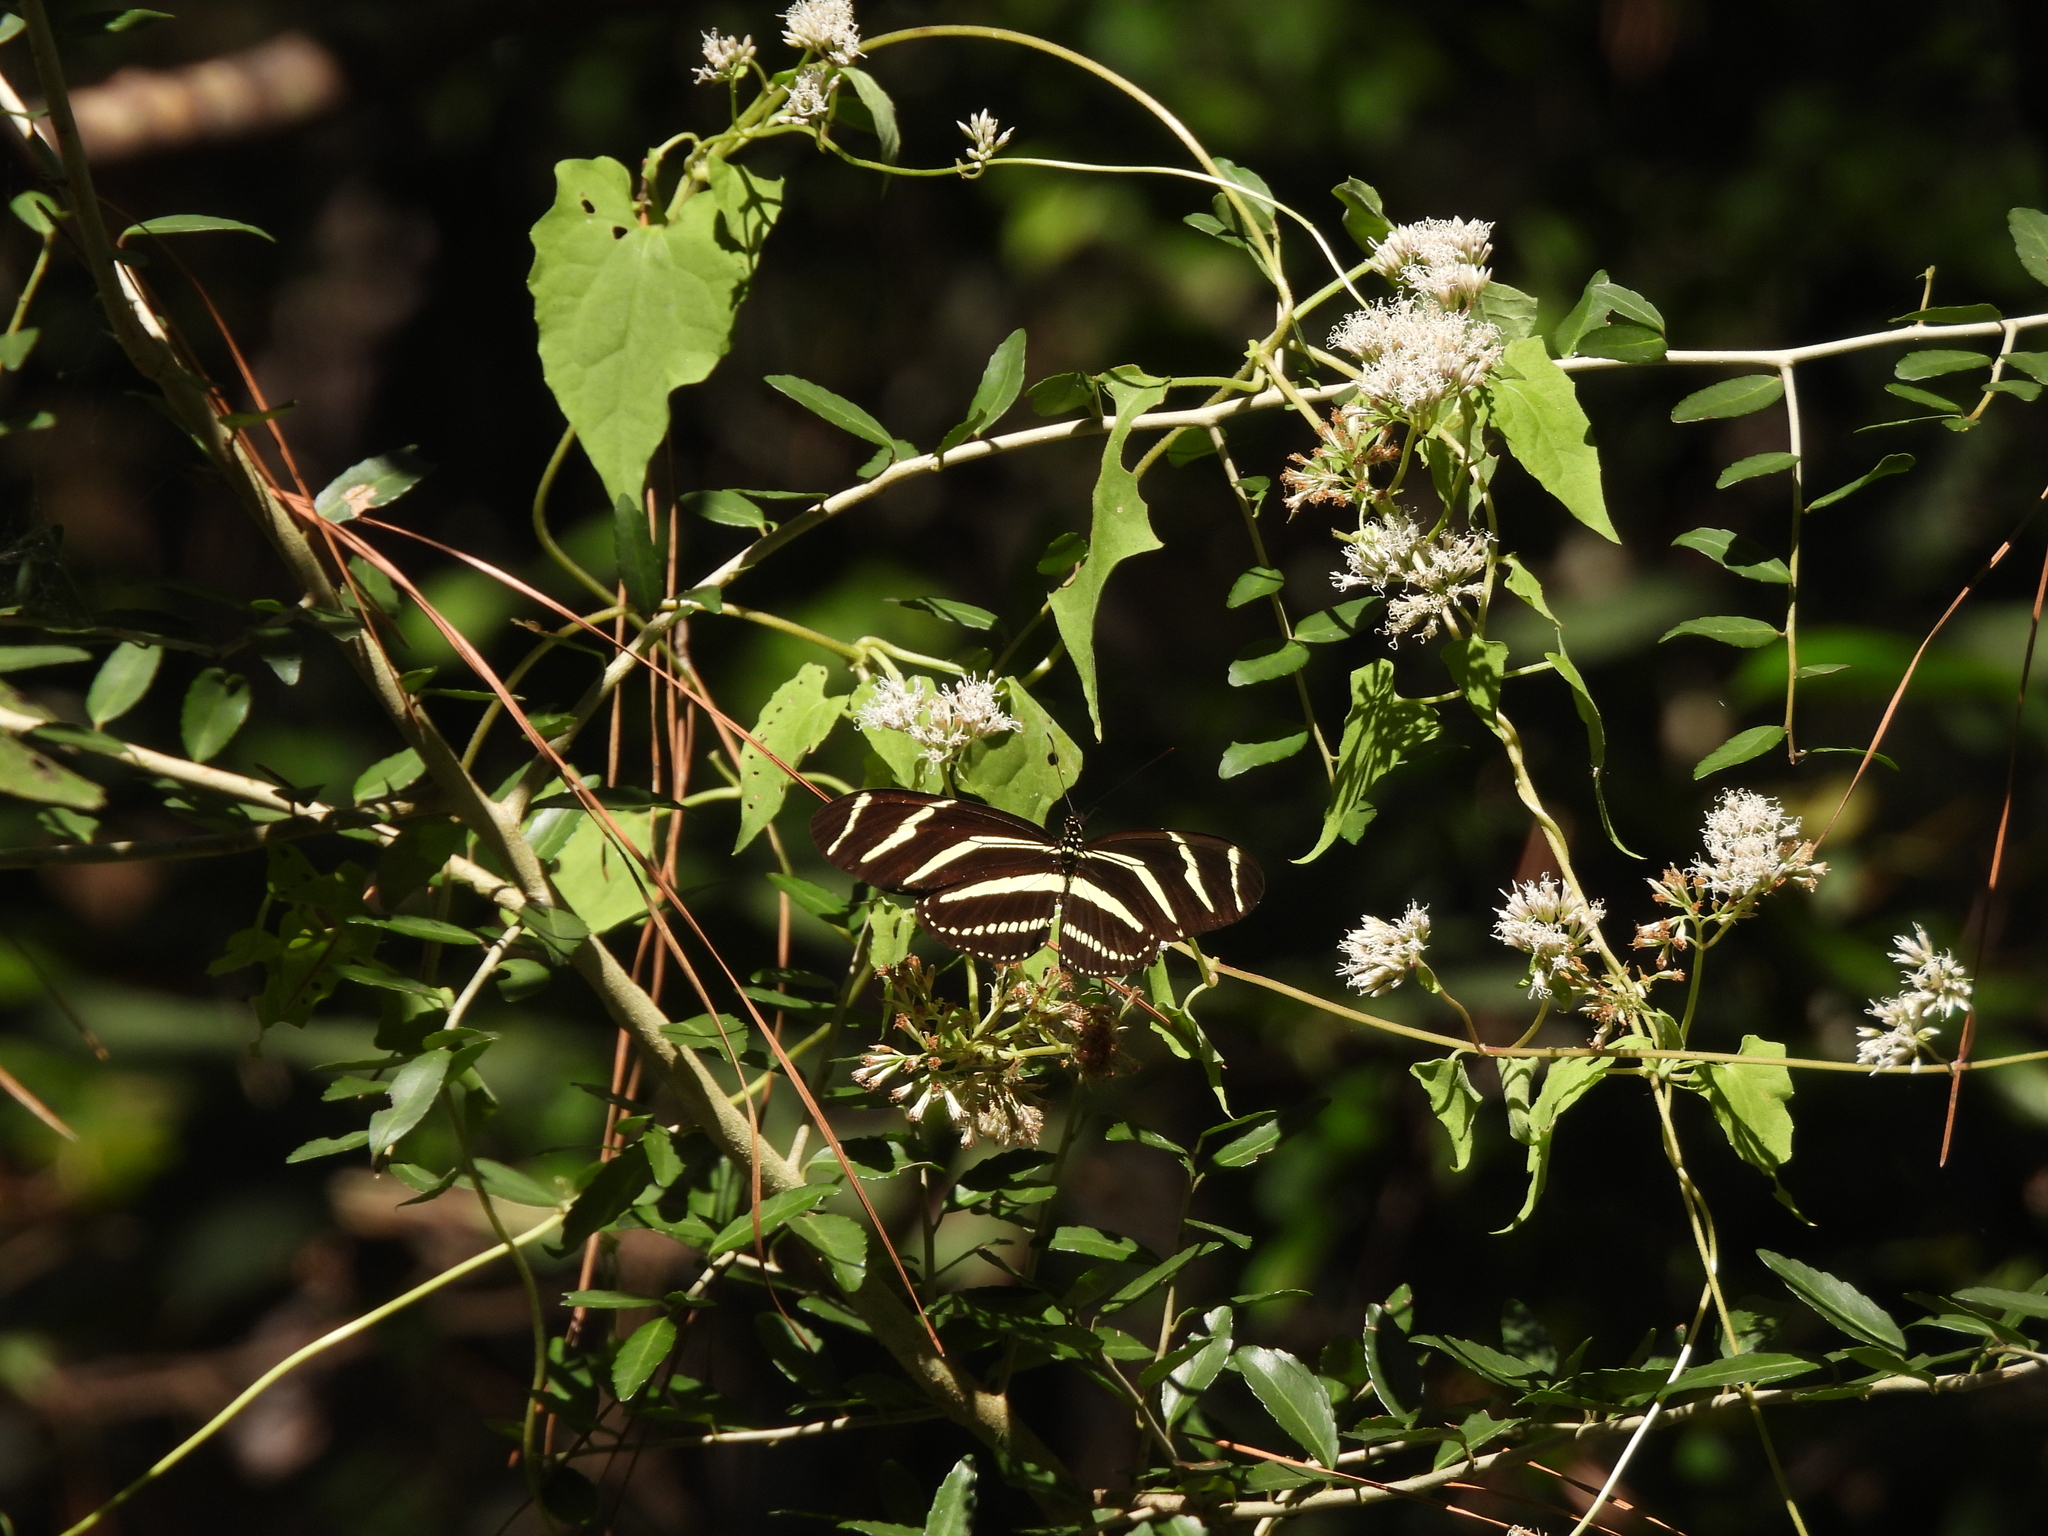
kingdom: Animalia
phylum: Arthropoda
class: Insecta
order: Lepidoptera
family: Nymphalidae
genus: Heliconius
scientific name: Heliconius charithonia
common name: Zebra long wing
